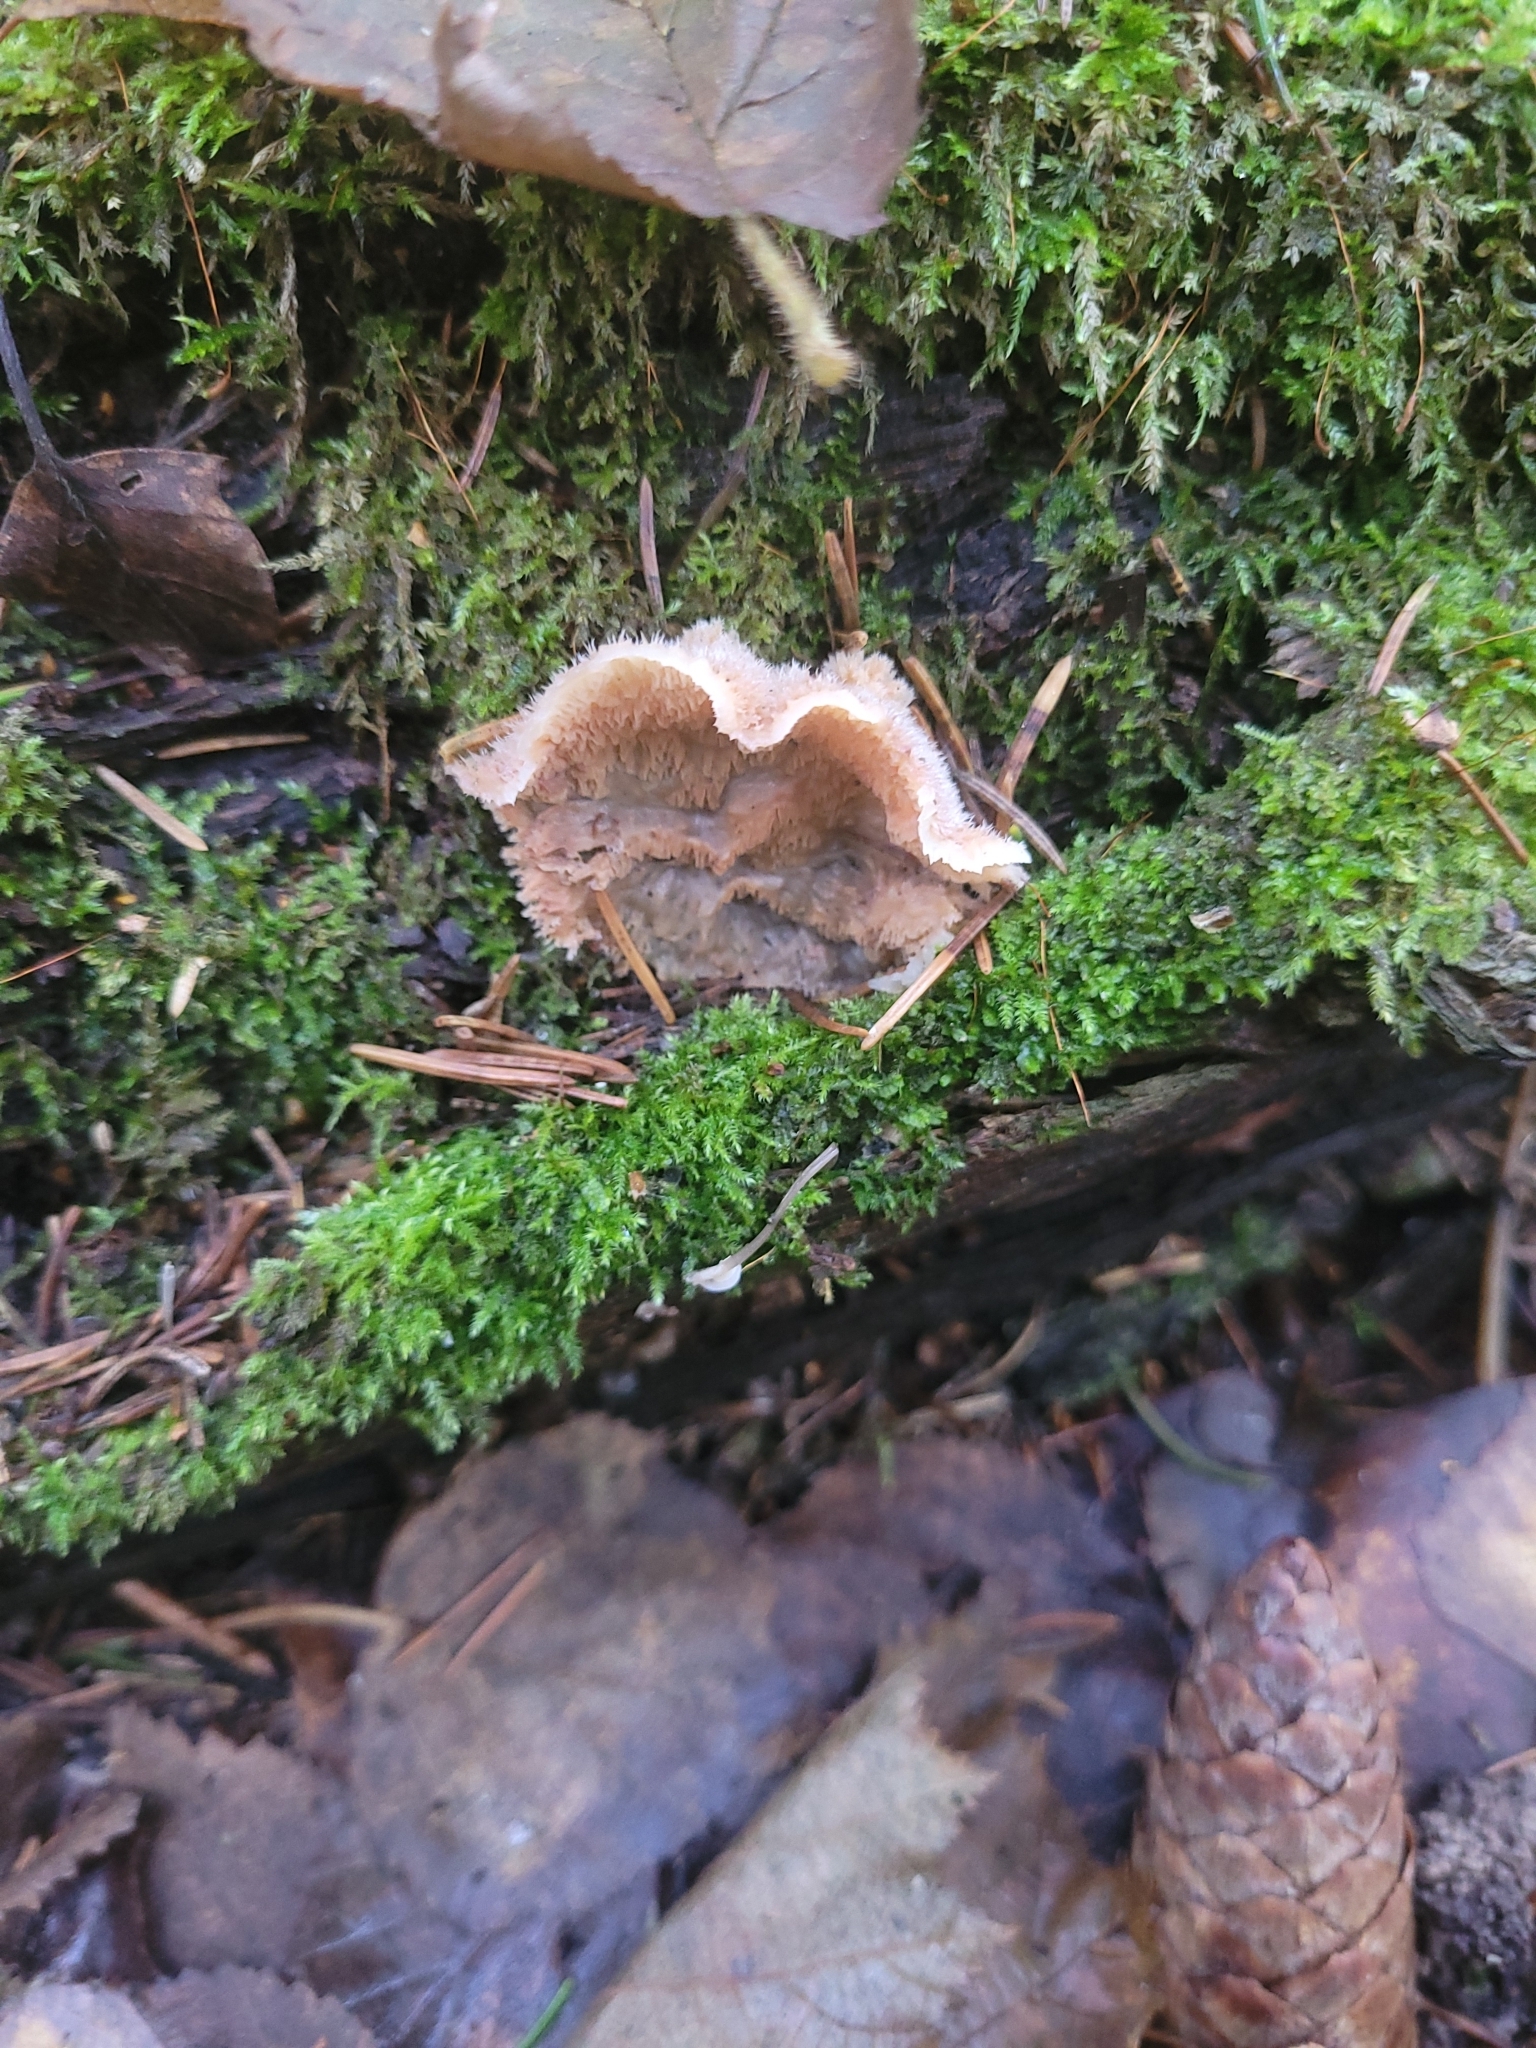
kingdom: Fungi
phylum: Basidiomycota
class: Agaricomycetes
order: Polyporales
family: Meruliaceae
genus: Phlebia
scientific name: Phlebia tremellosa
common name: Jelly rot
